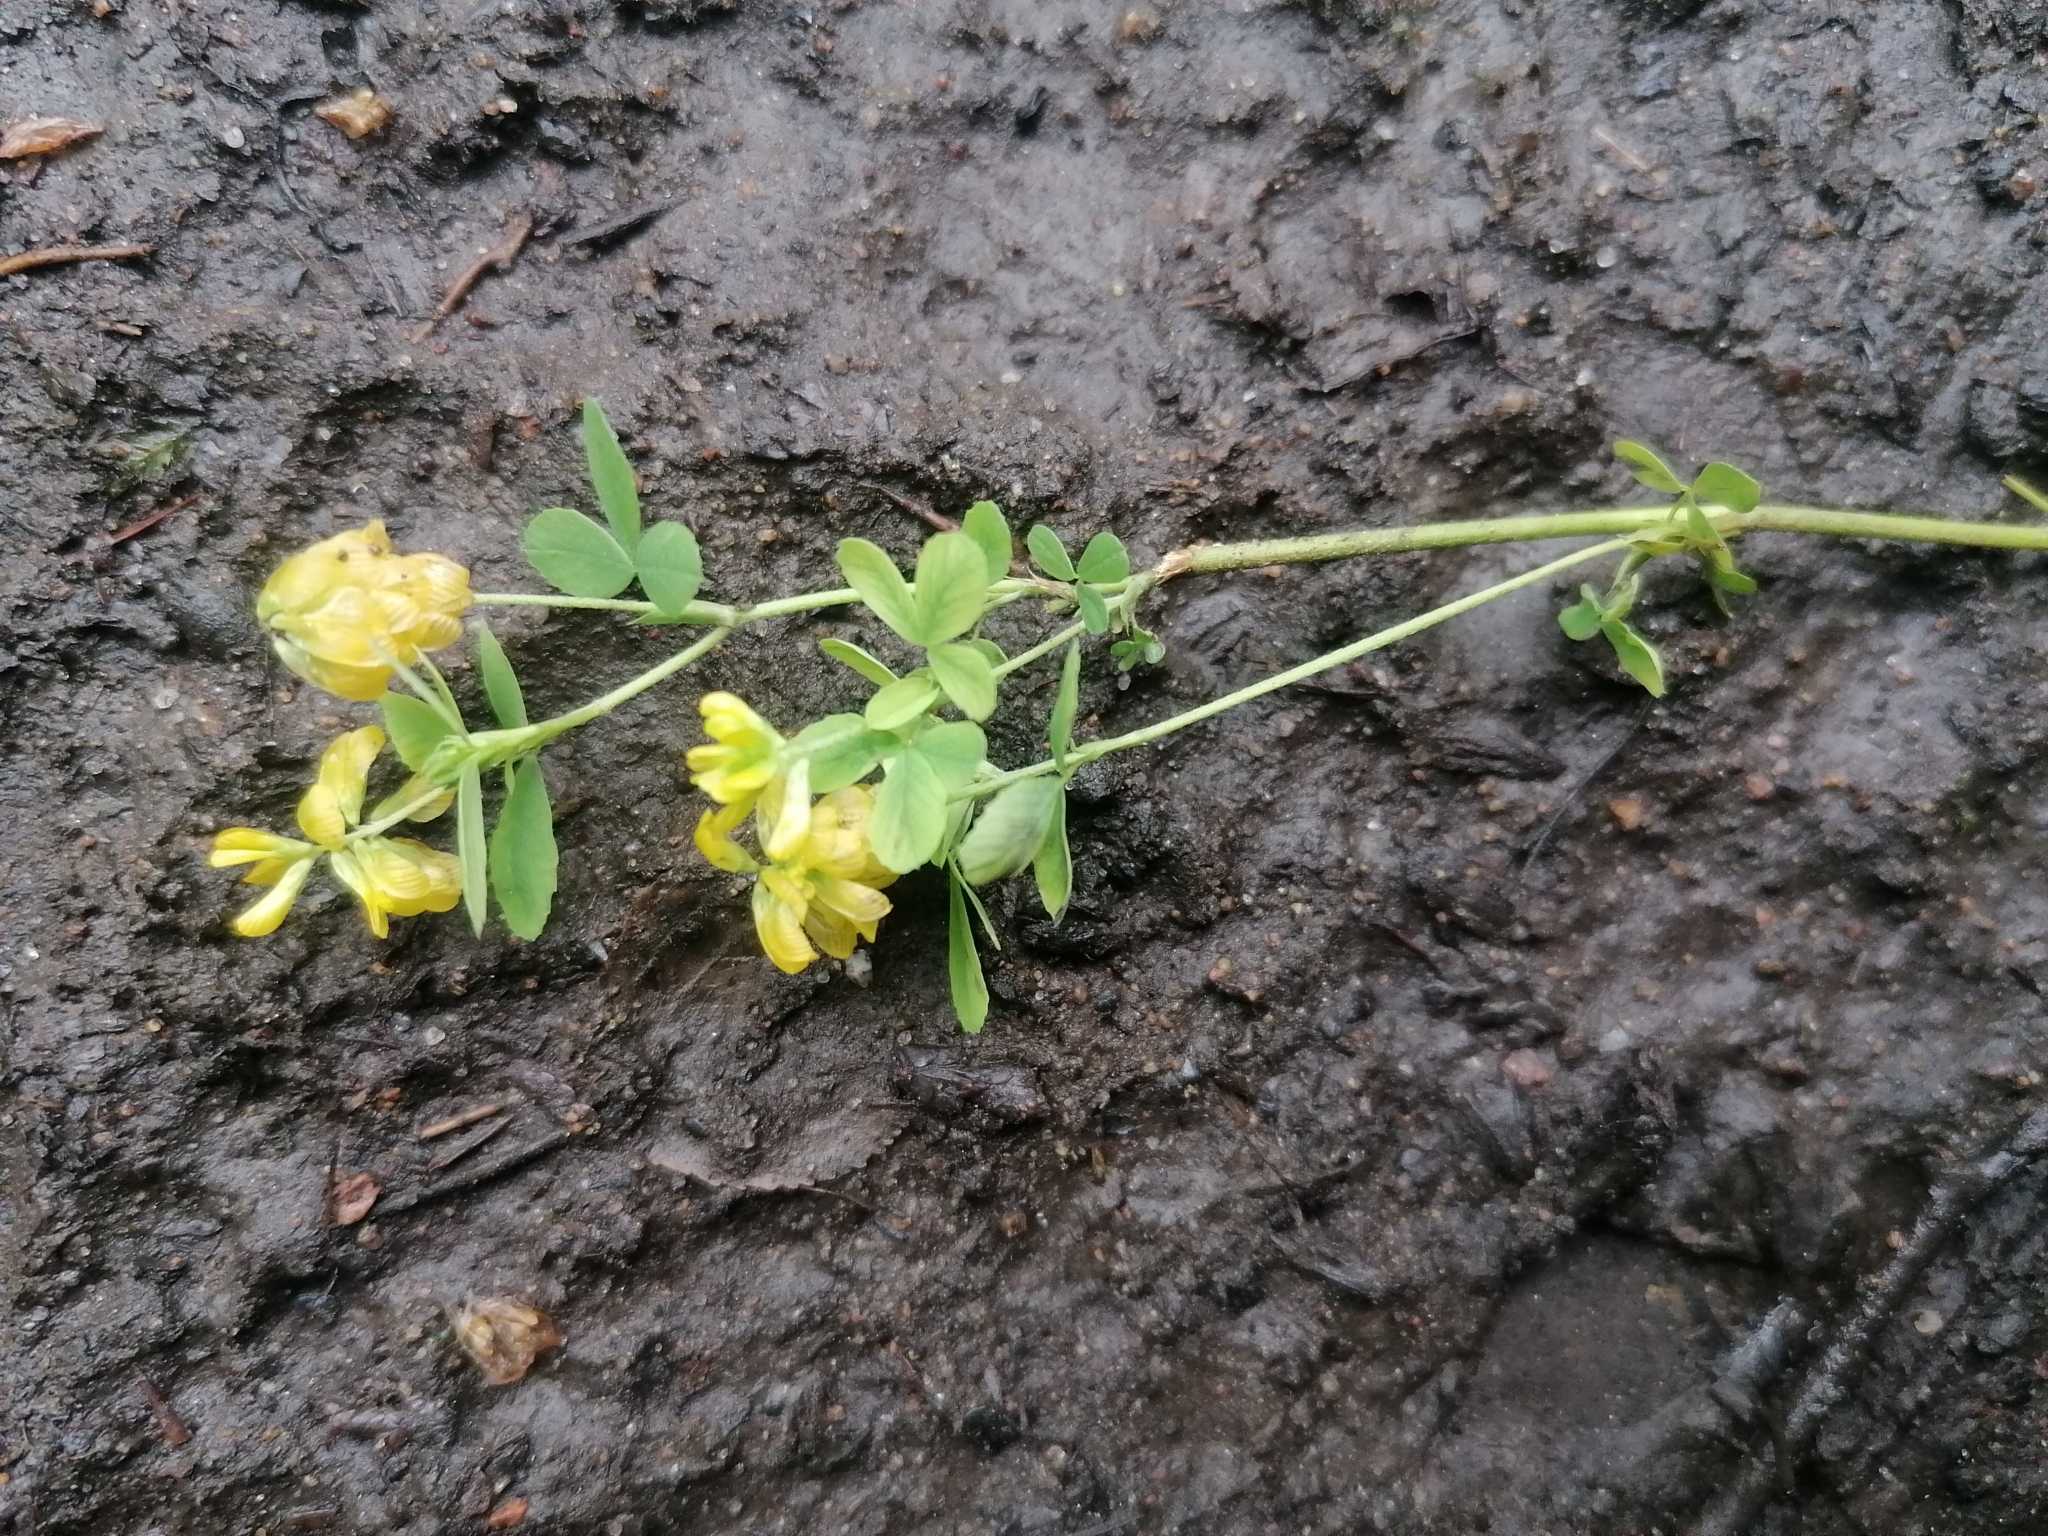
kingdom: Plantae
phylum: Tracheophyta
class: Magnoliopsida
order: Fabales
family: Fabaceae
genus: Trifolium
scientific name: Trifolium aureum
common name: Golden clover
